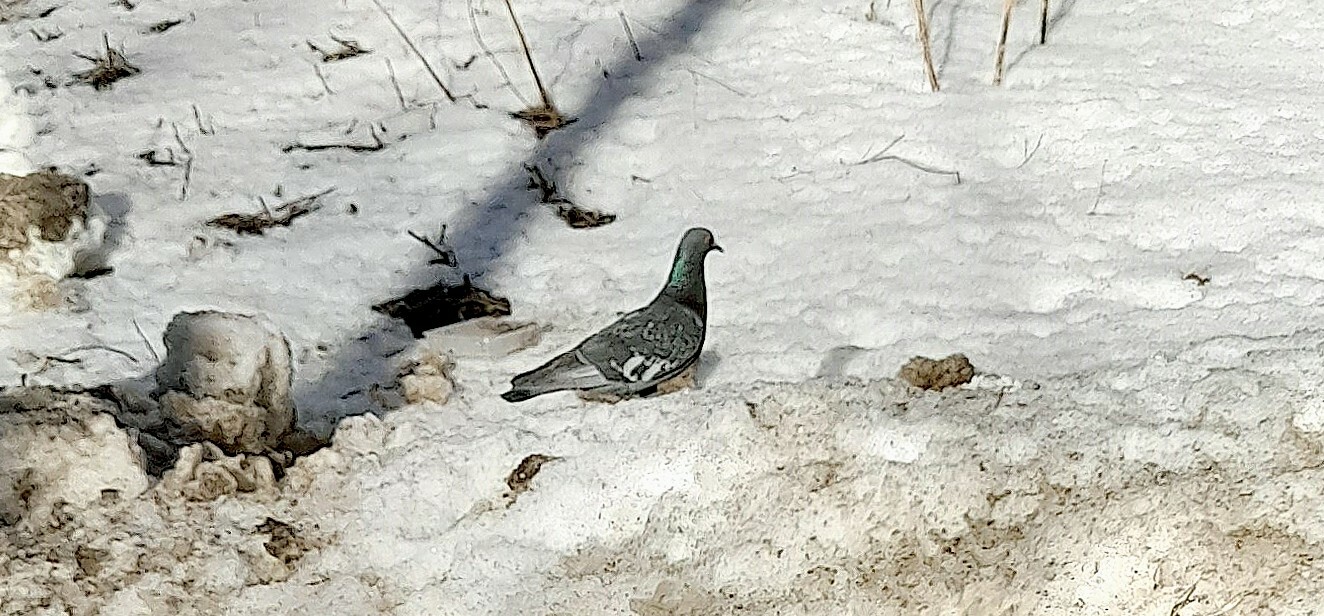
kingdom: Animalia
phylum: Chordata
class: Aves
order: Columbiformes
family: Columbidae
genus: Columba
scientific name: Columba livia
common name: Rock pigeon
